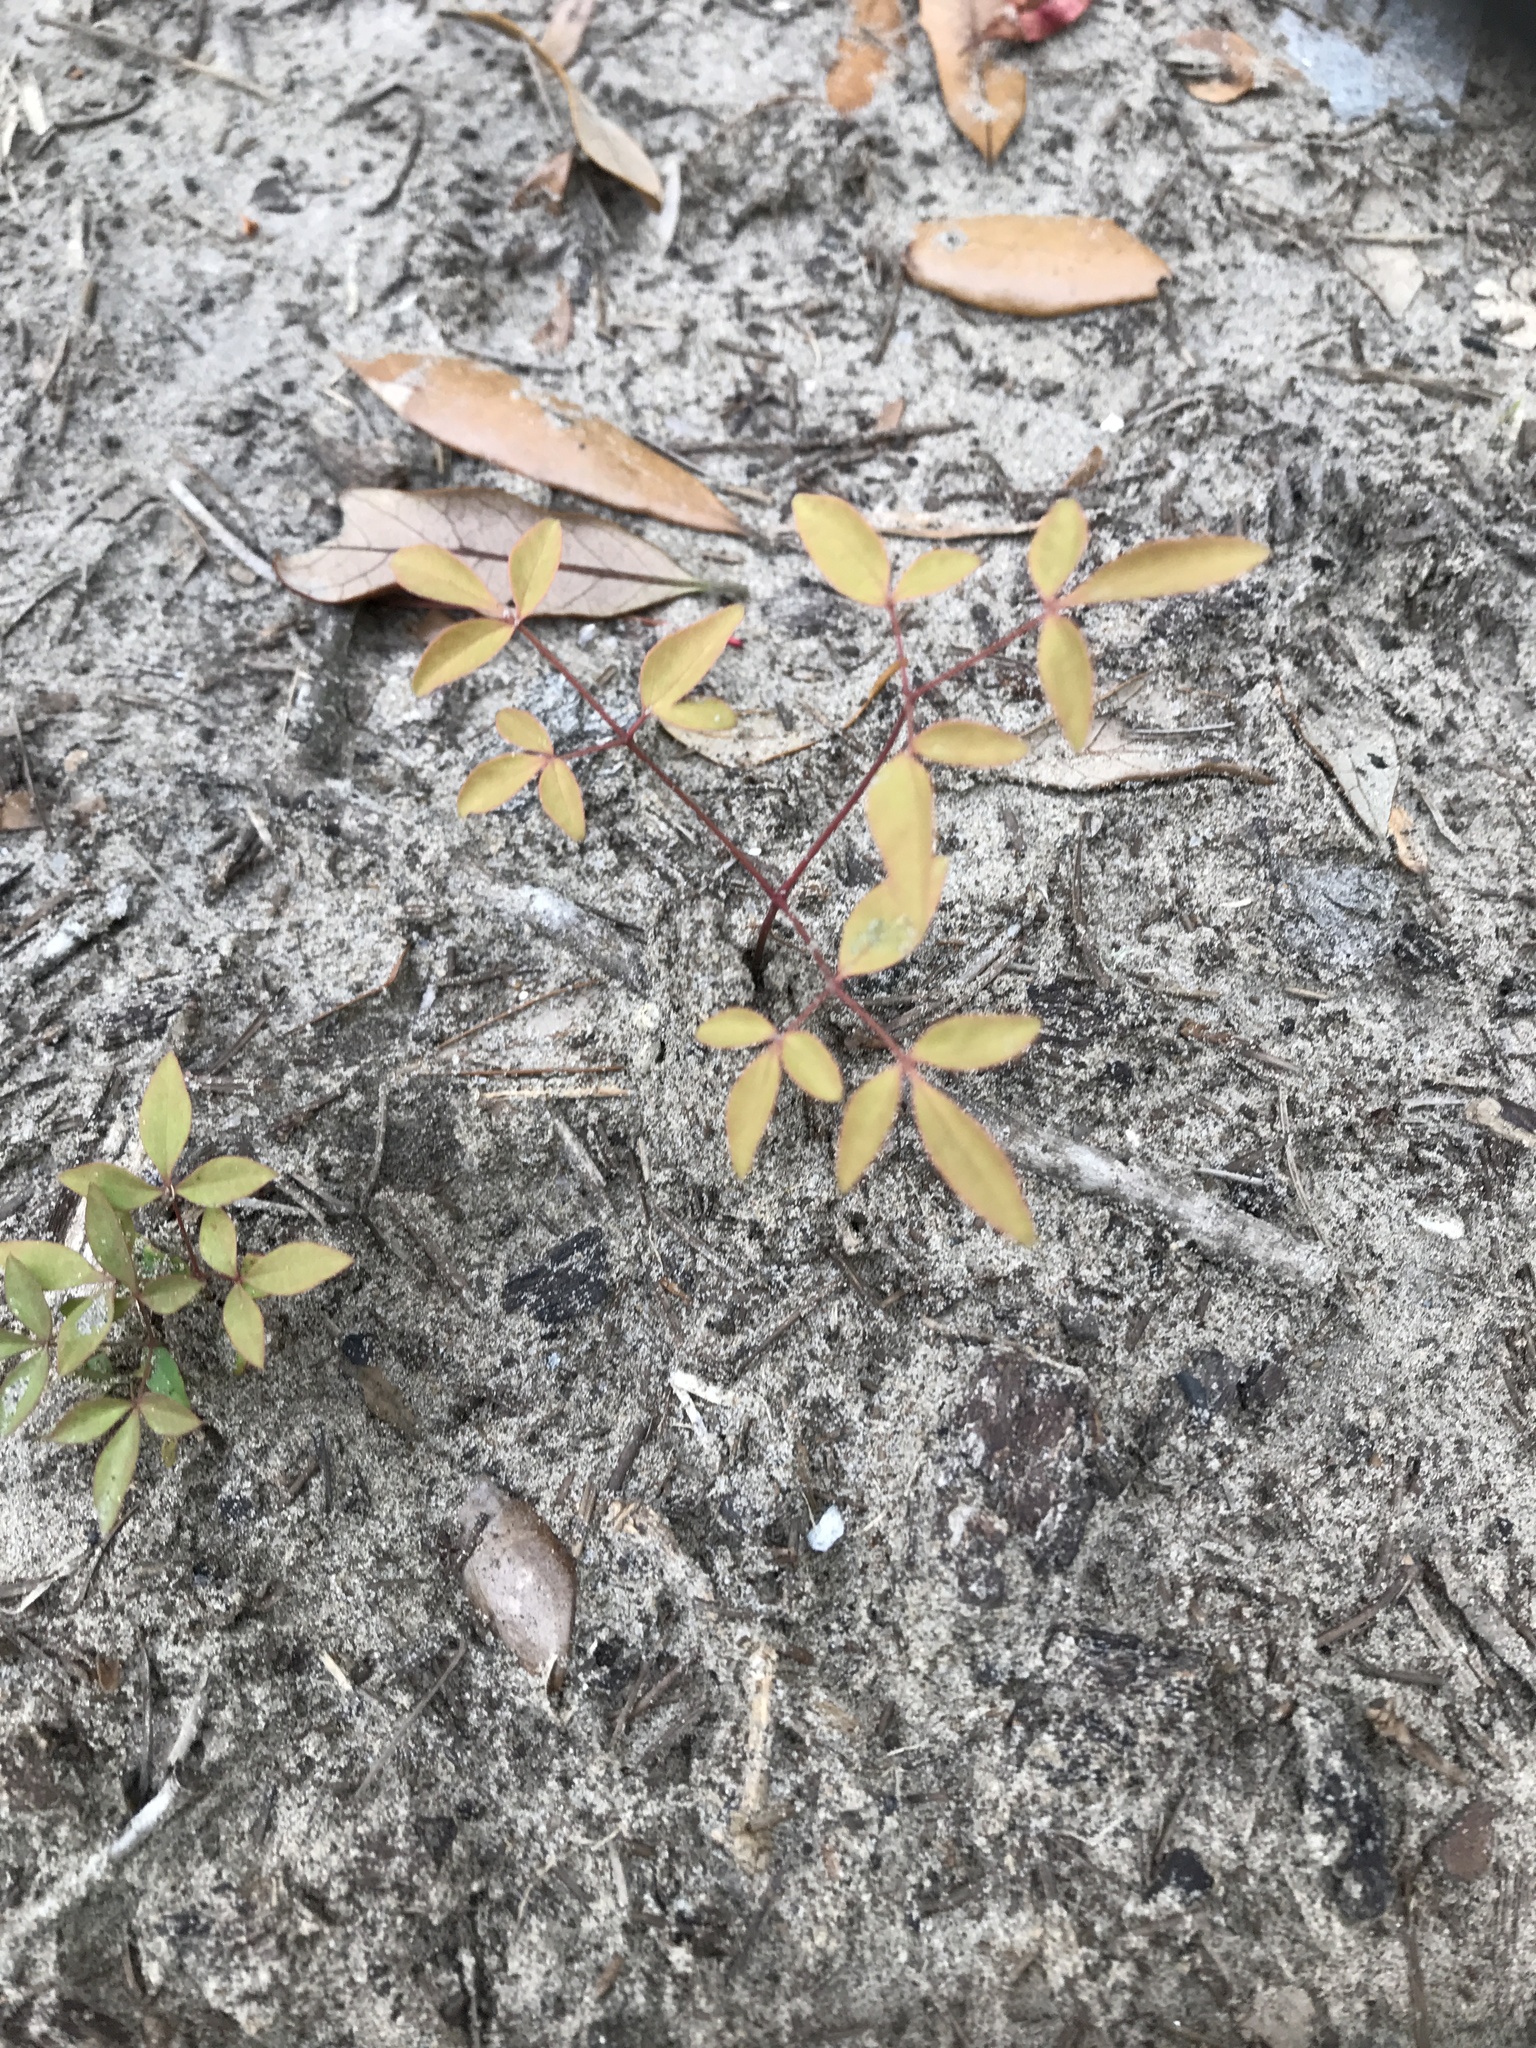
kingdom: Plantae
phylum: Tracheophyta
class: Magnoliopsida
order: Ranunculales
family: Berberidaceae
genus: Nandina
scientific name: Nandina domestica
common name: Sacred bamboo
